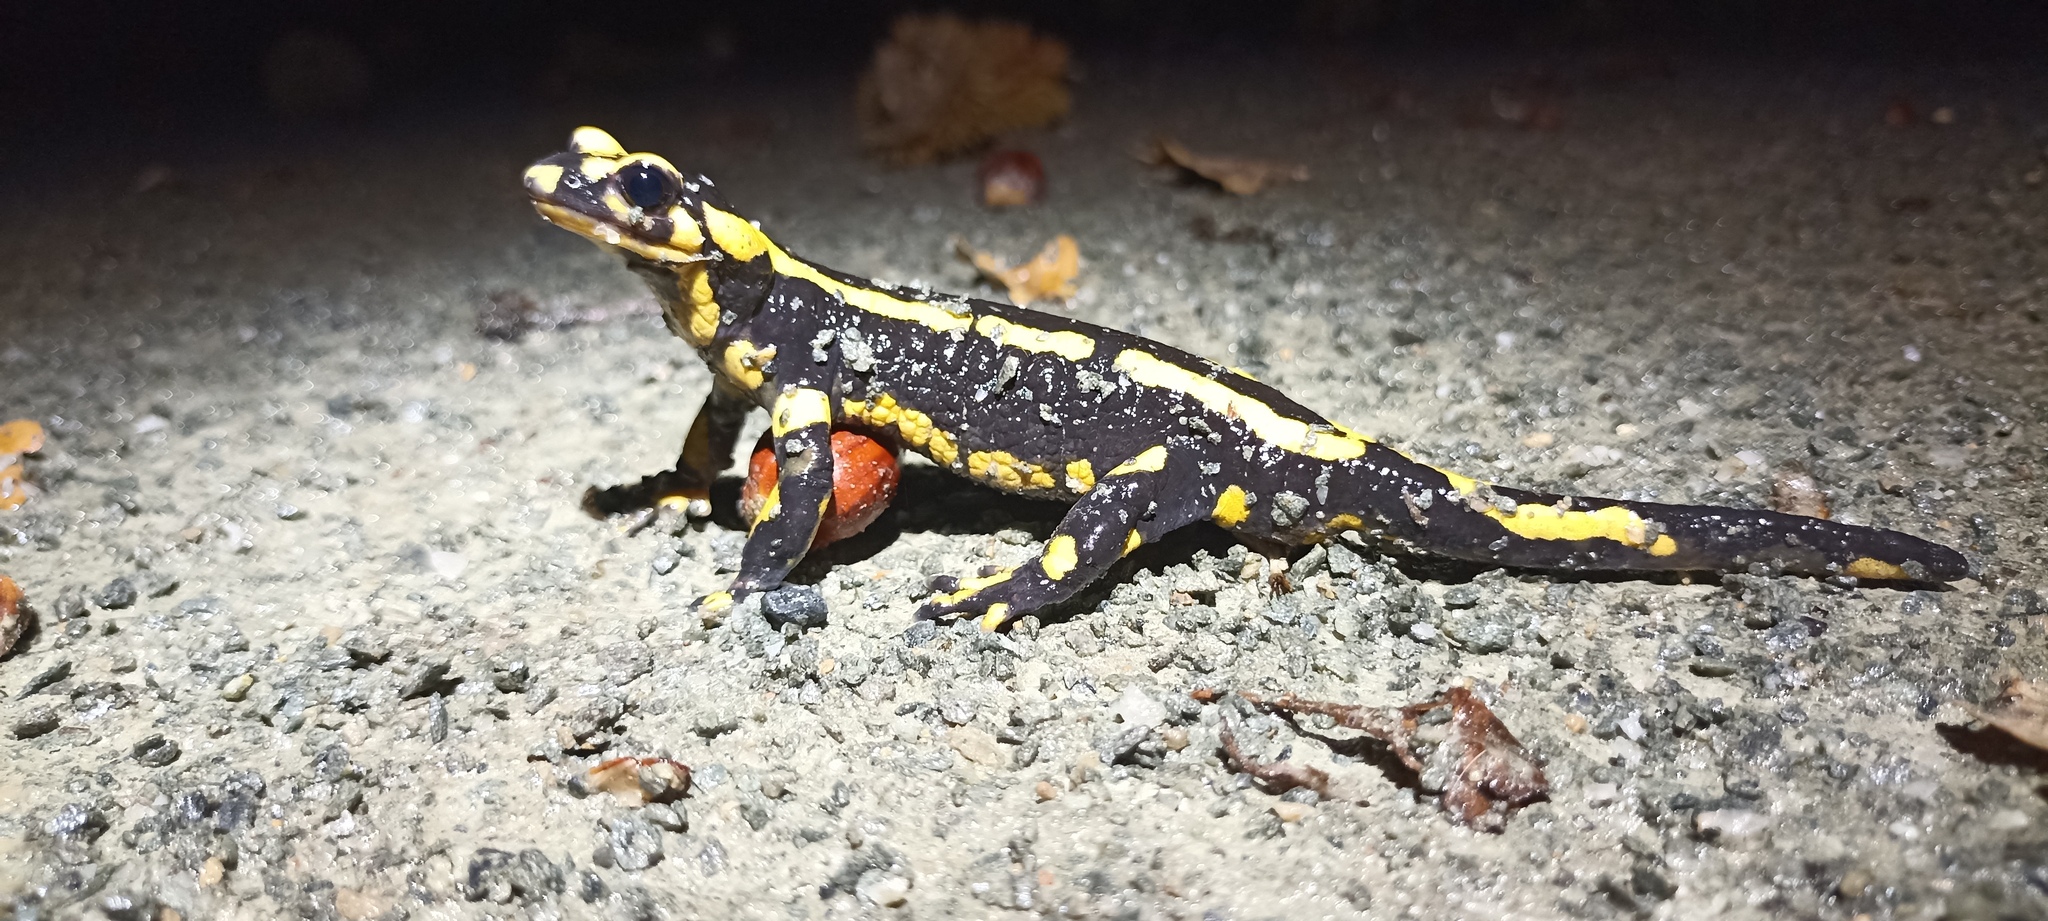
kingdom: Animalia
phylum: Chordata
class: Amphibia
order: Caudata
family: Salamandridae
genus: Salamandra
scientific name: Salamandra salamandra
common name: Fire salamander
